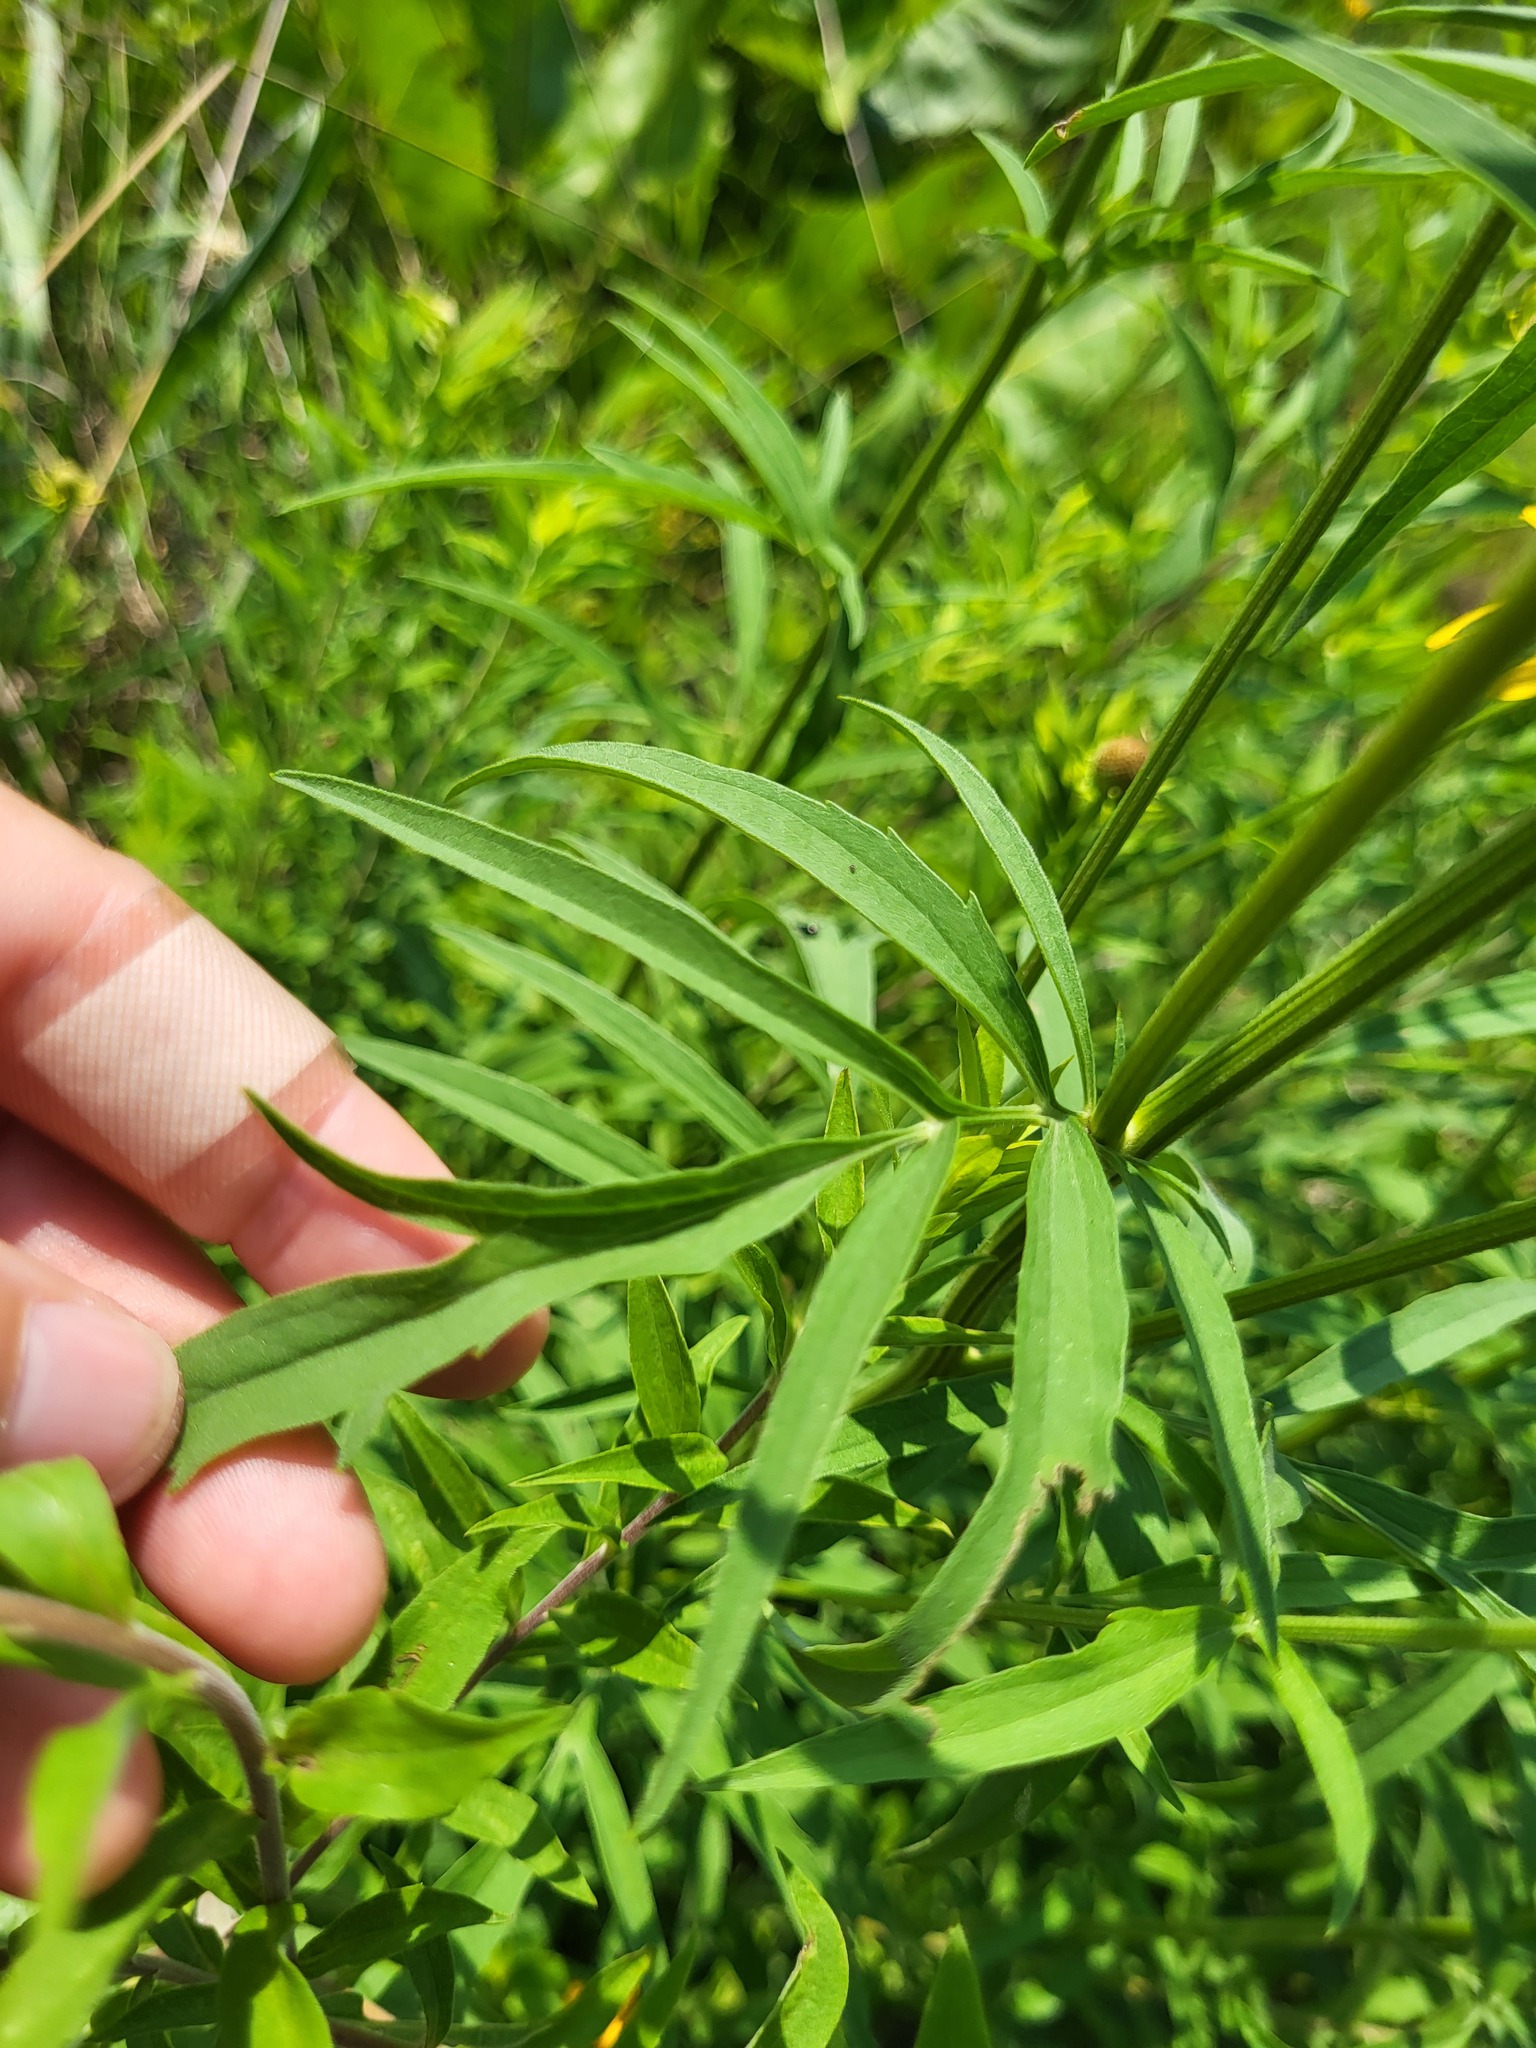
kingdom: Plantae
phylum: Tracheophyta
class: Magnoliopsida
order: Asterales
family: Asteraceae
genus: Ratibida
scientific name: Ratibida pinnata
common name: Drooping prairie-coneflower
